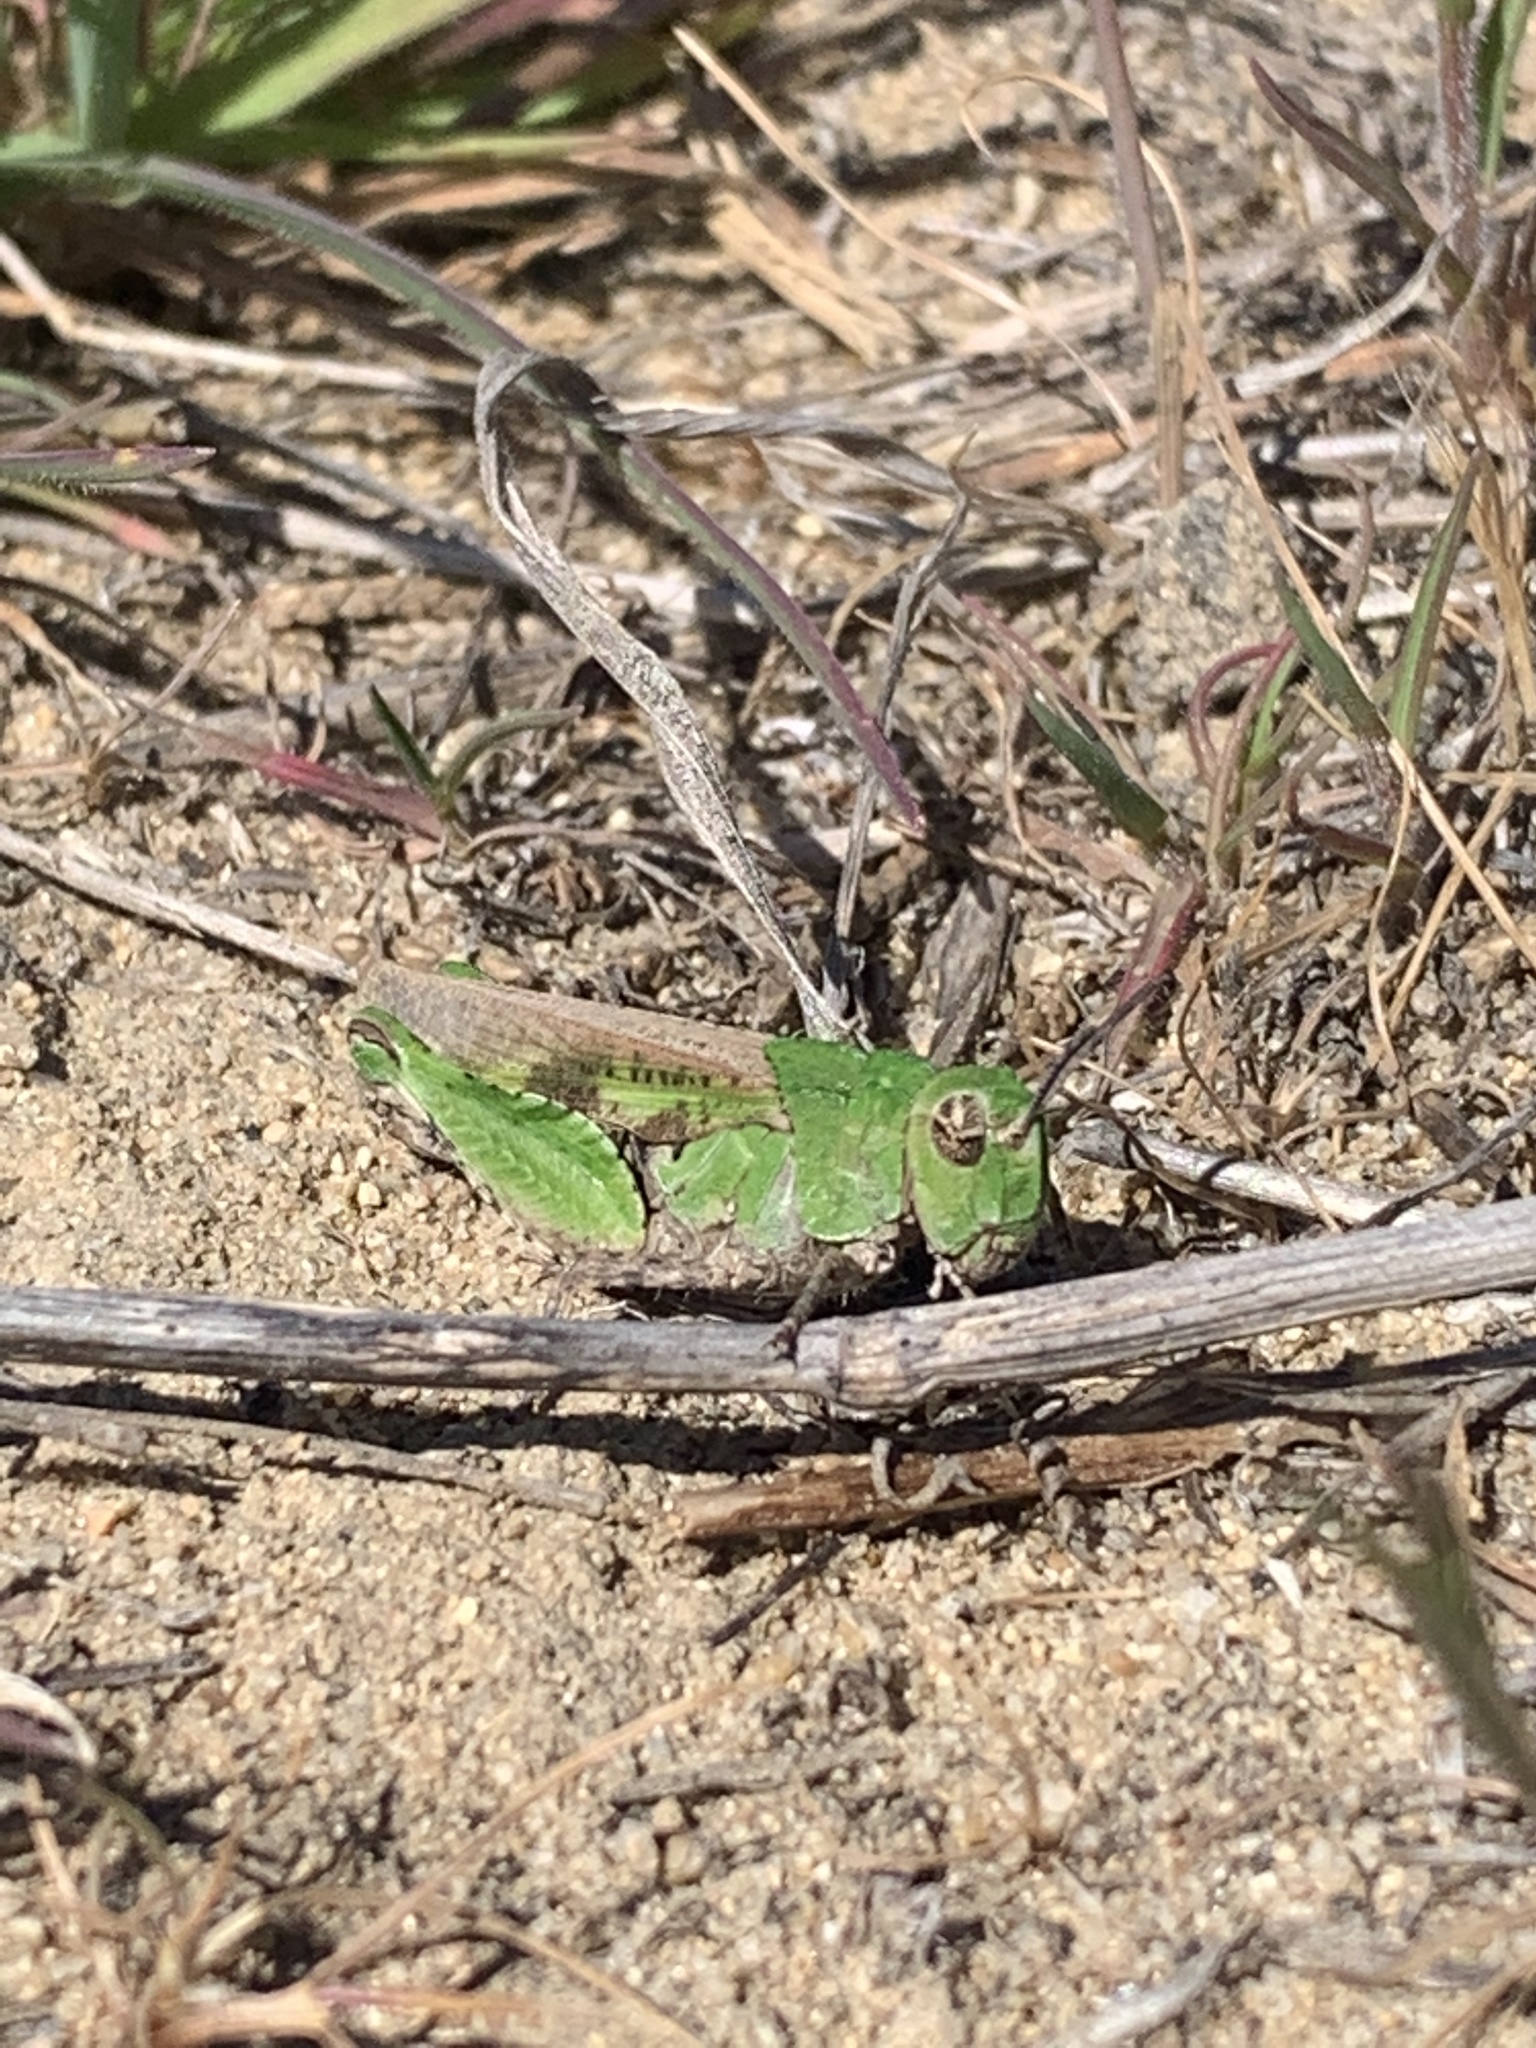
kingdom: Animalia
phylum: Arthropoda
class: Insecta
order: Orthoptera
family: Acrididae
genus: Chimarocephala
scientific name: Chimarocephala pacifica
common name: Painted meadow grasshopper
